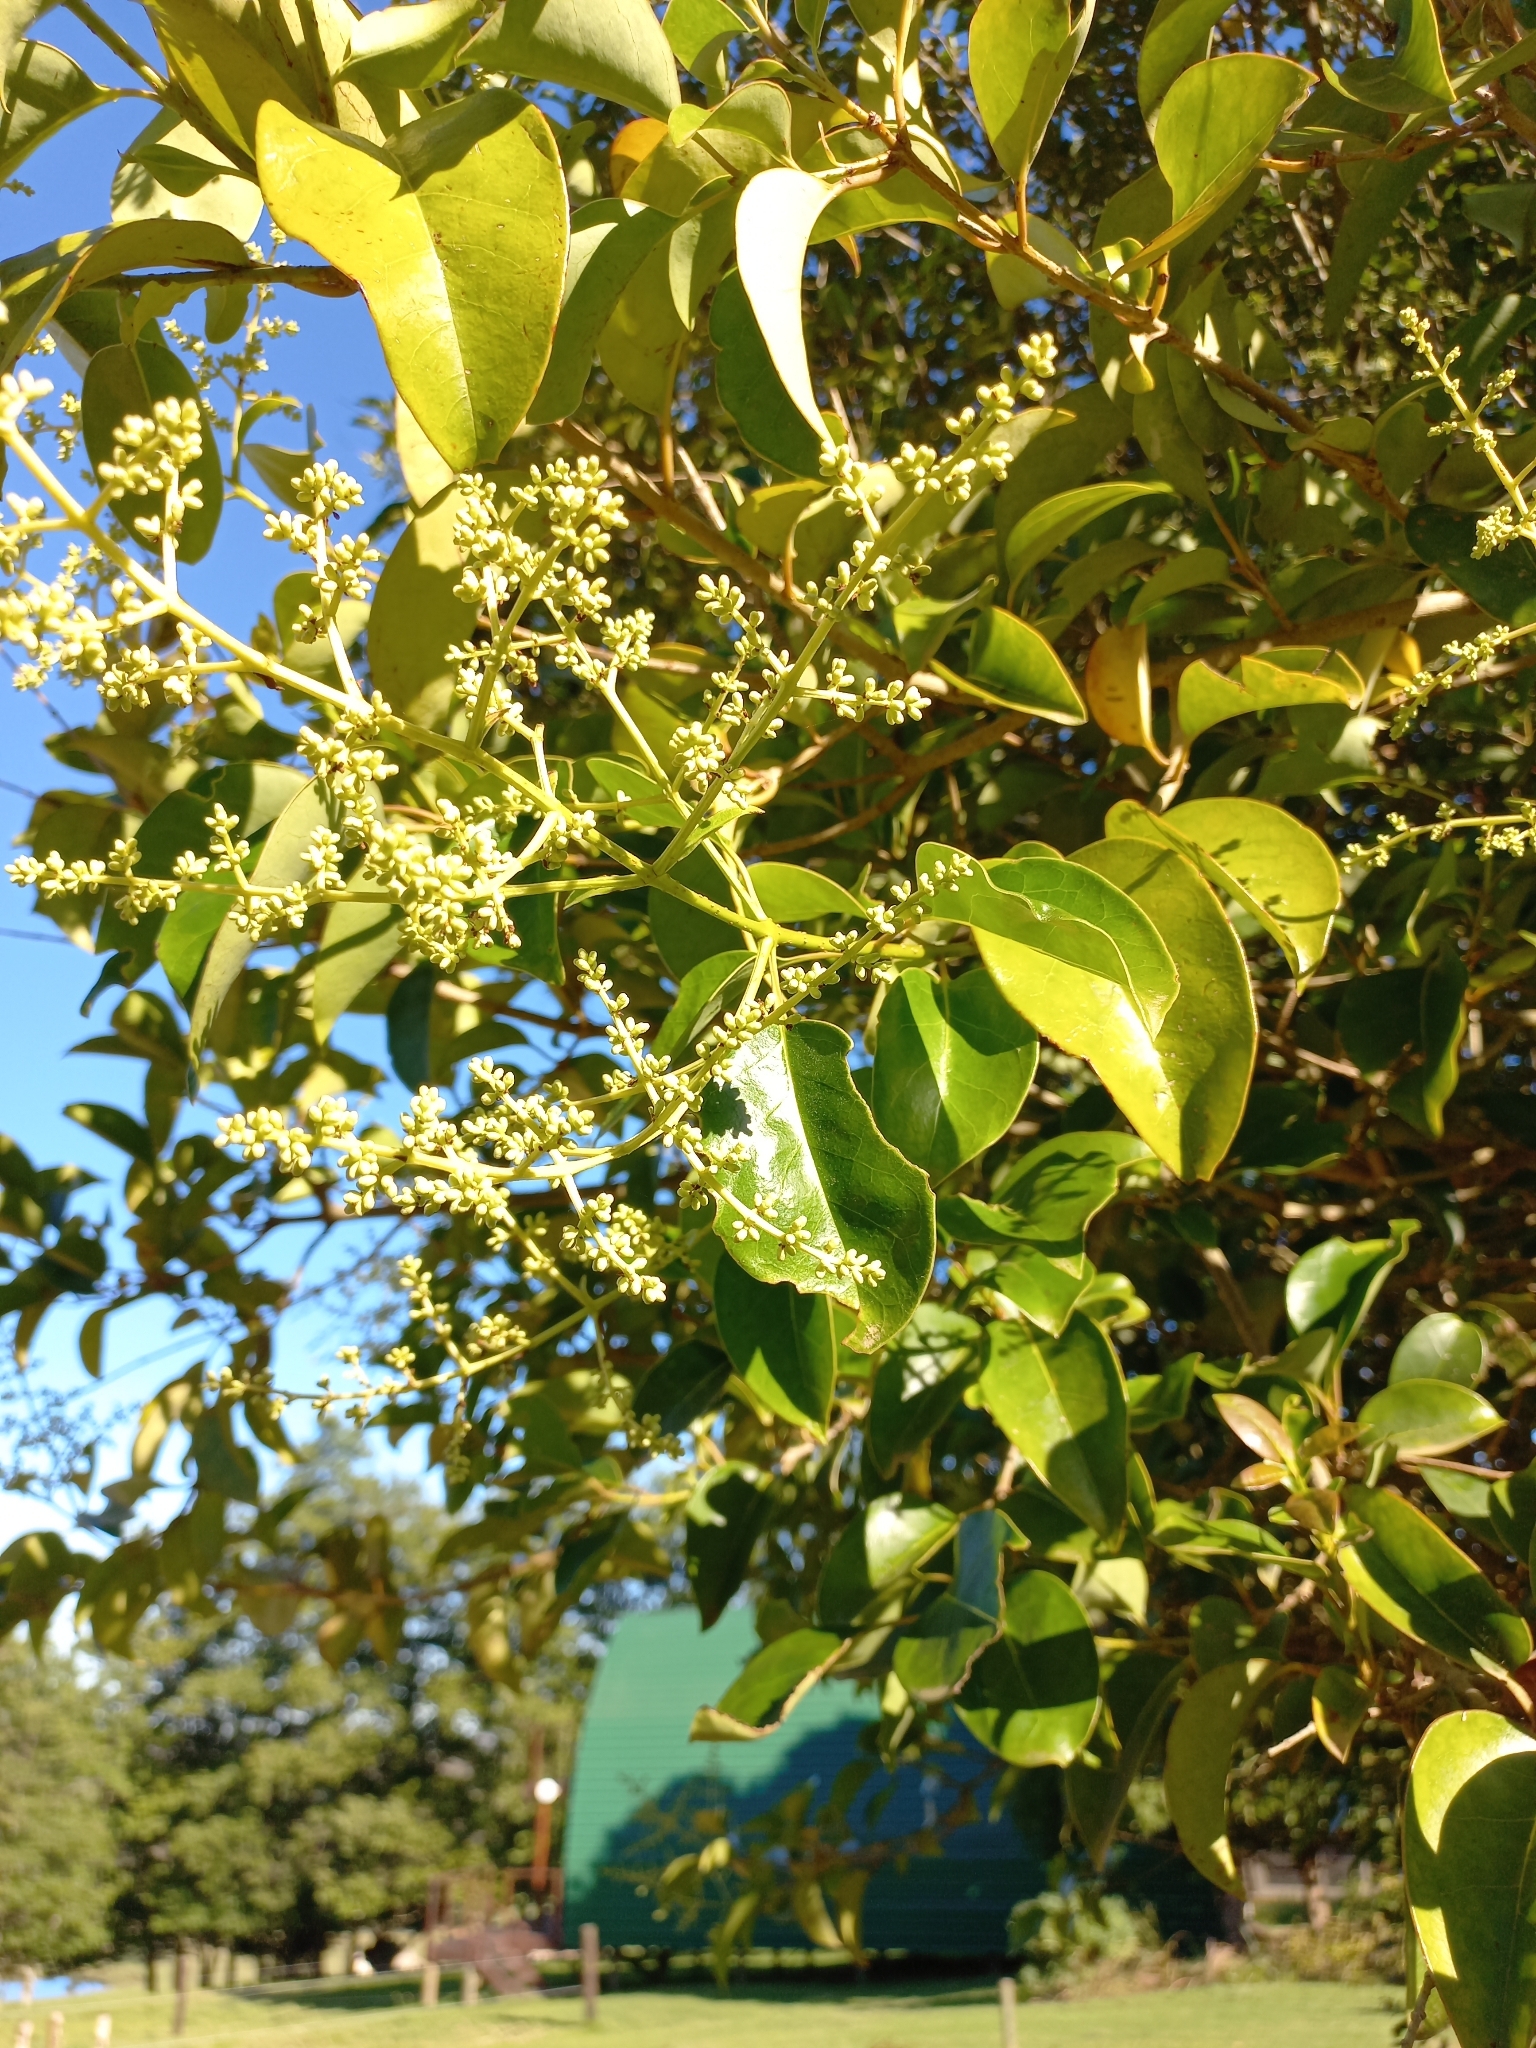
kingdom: Plantae
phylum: Tracheophyta
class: Magnoliopsida
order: Lamiales
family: Oleaceae
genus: Ligustrum
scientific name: Ligustrum lucidum
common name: Glossy privet
